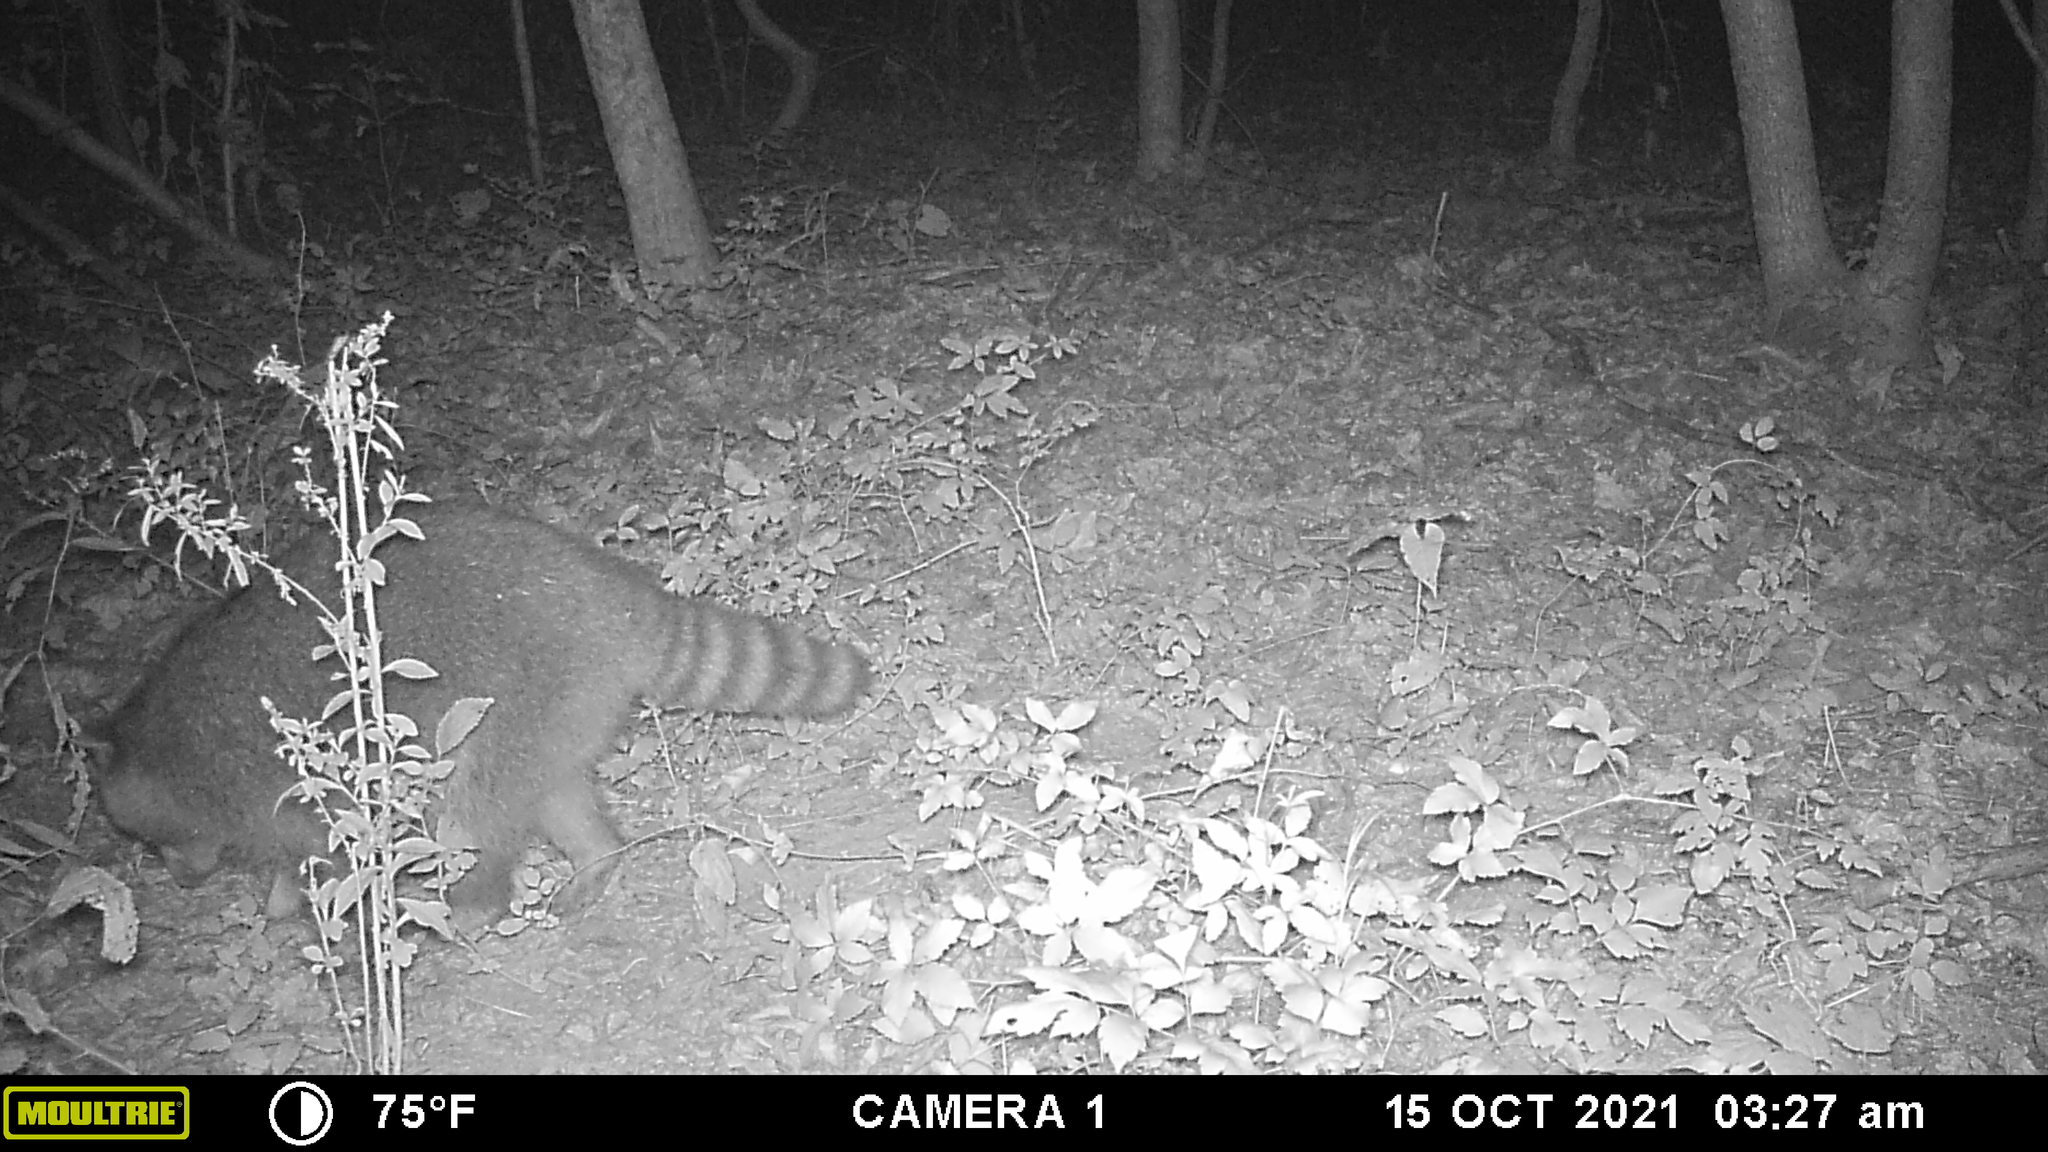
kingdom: Animalia
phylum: Chordata
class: Mammalia
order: Carnivora
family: Procyonidae
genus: Procyon
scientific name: Procyon lotor
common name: Raccoon
